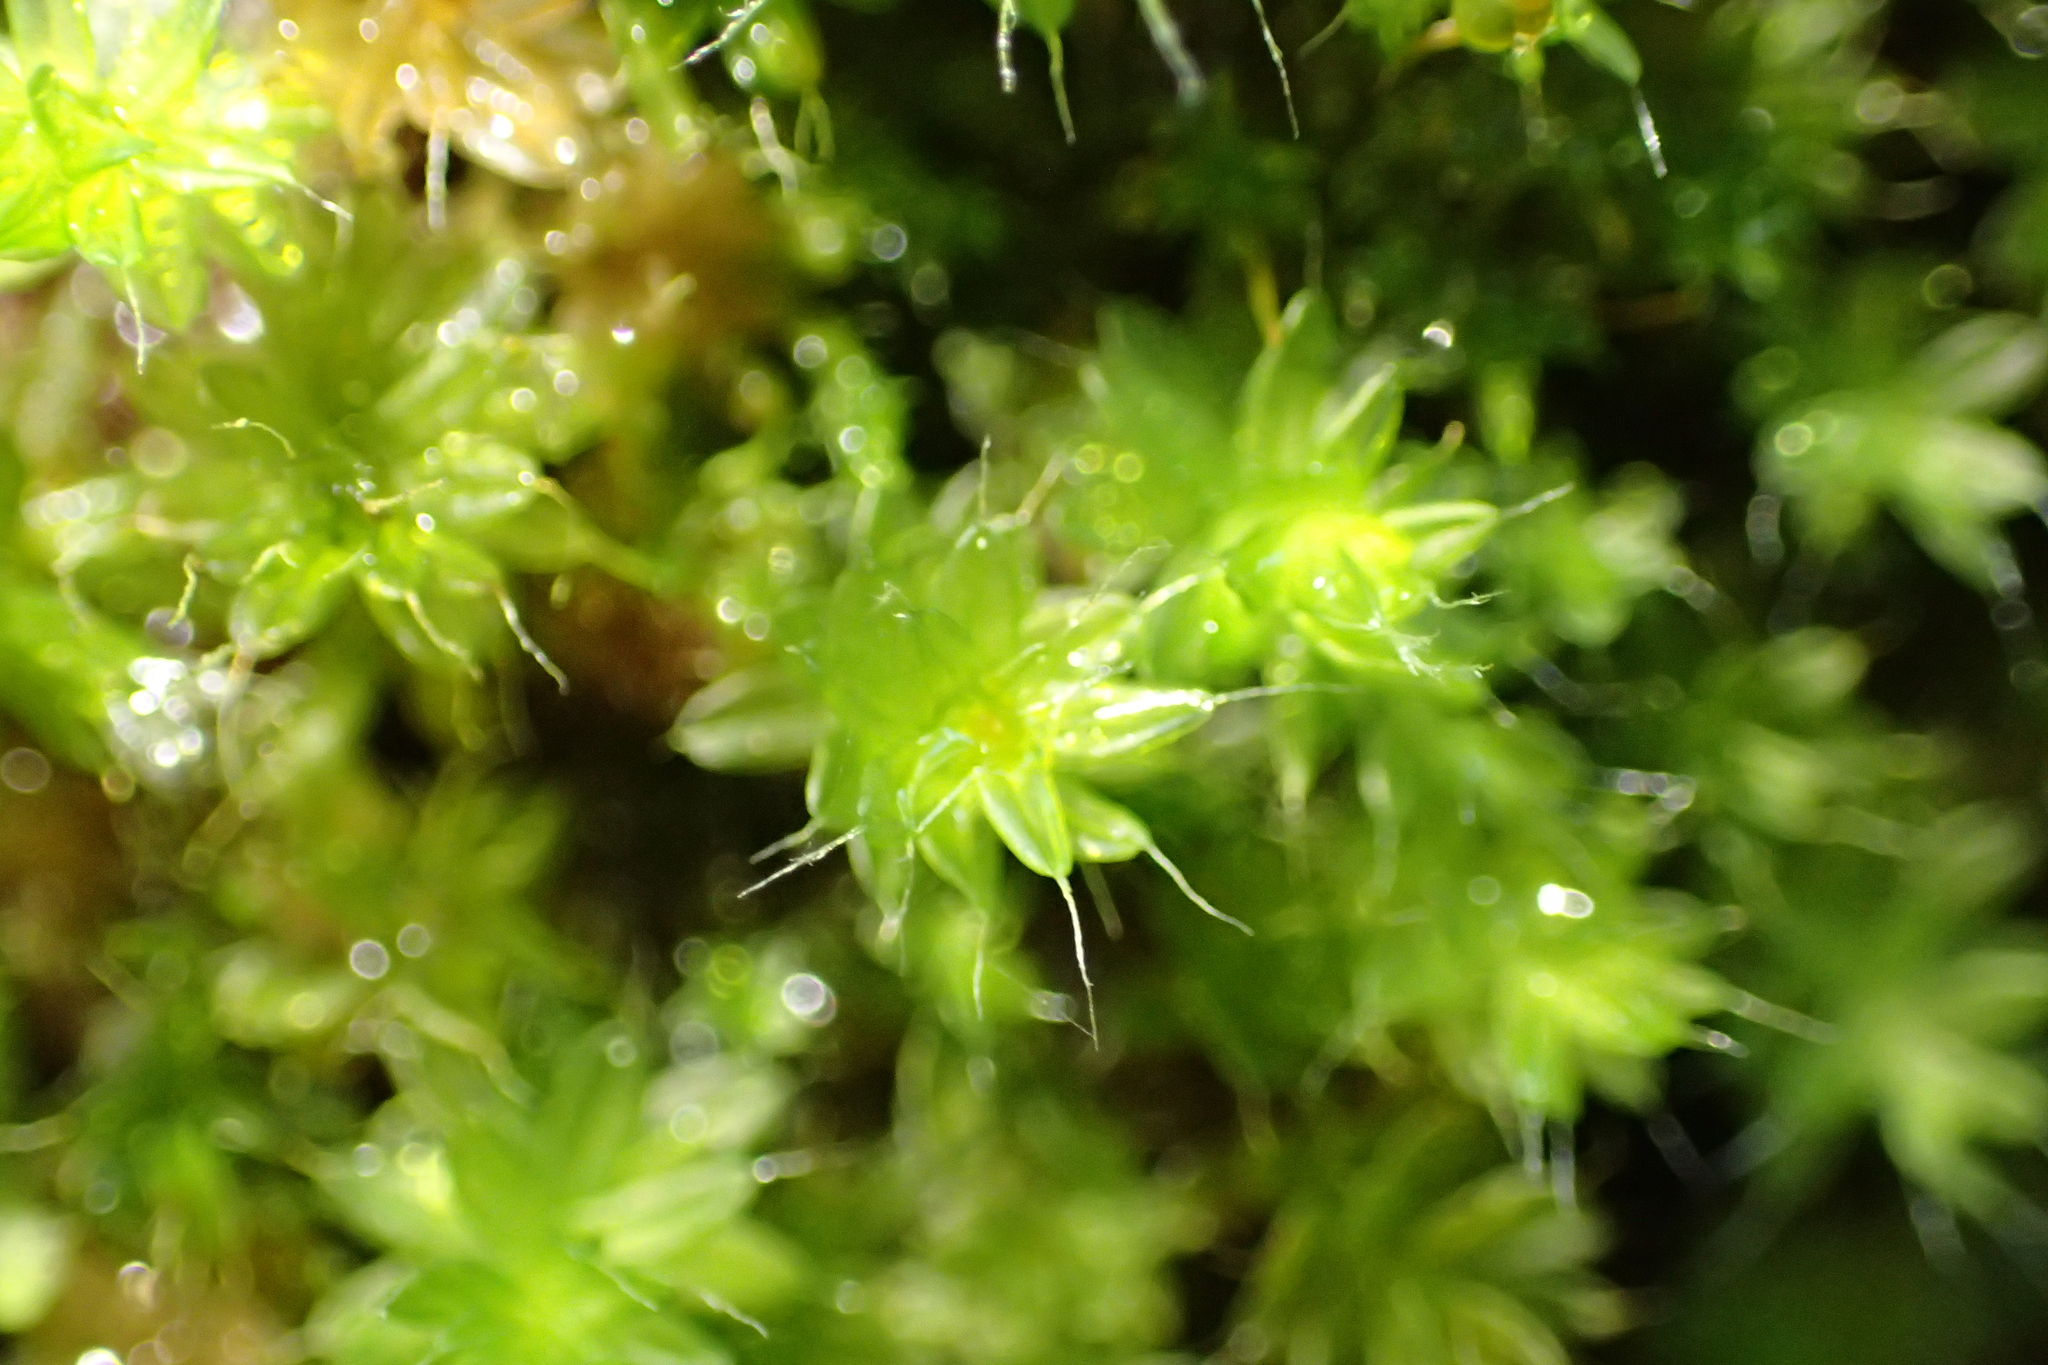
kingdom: Plantae
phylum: Bryophyta
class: Bryopsida
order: Bryales
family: Leptostomataceae
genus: Leptostomum
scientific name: Leptostomum macrocarpon
